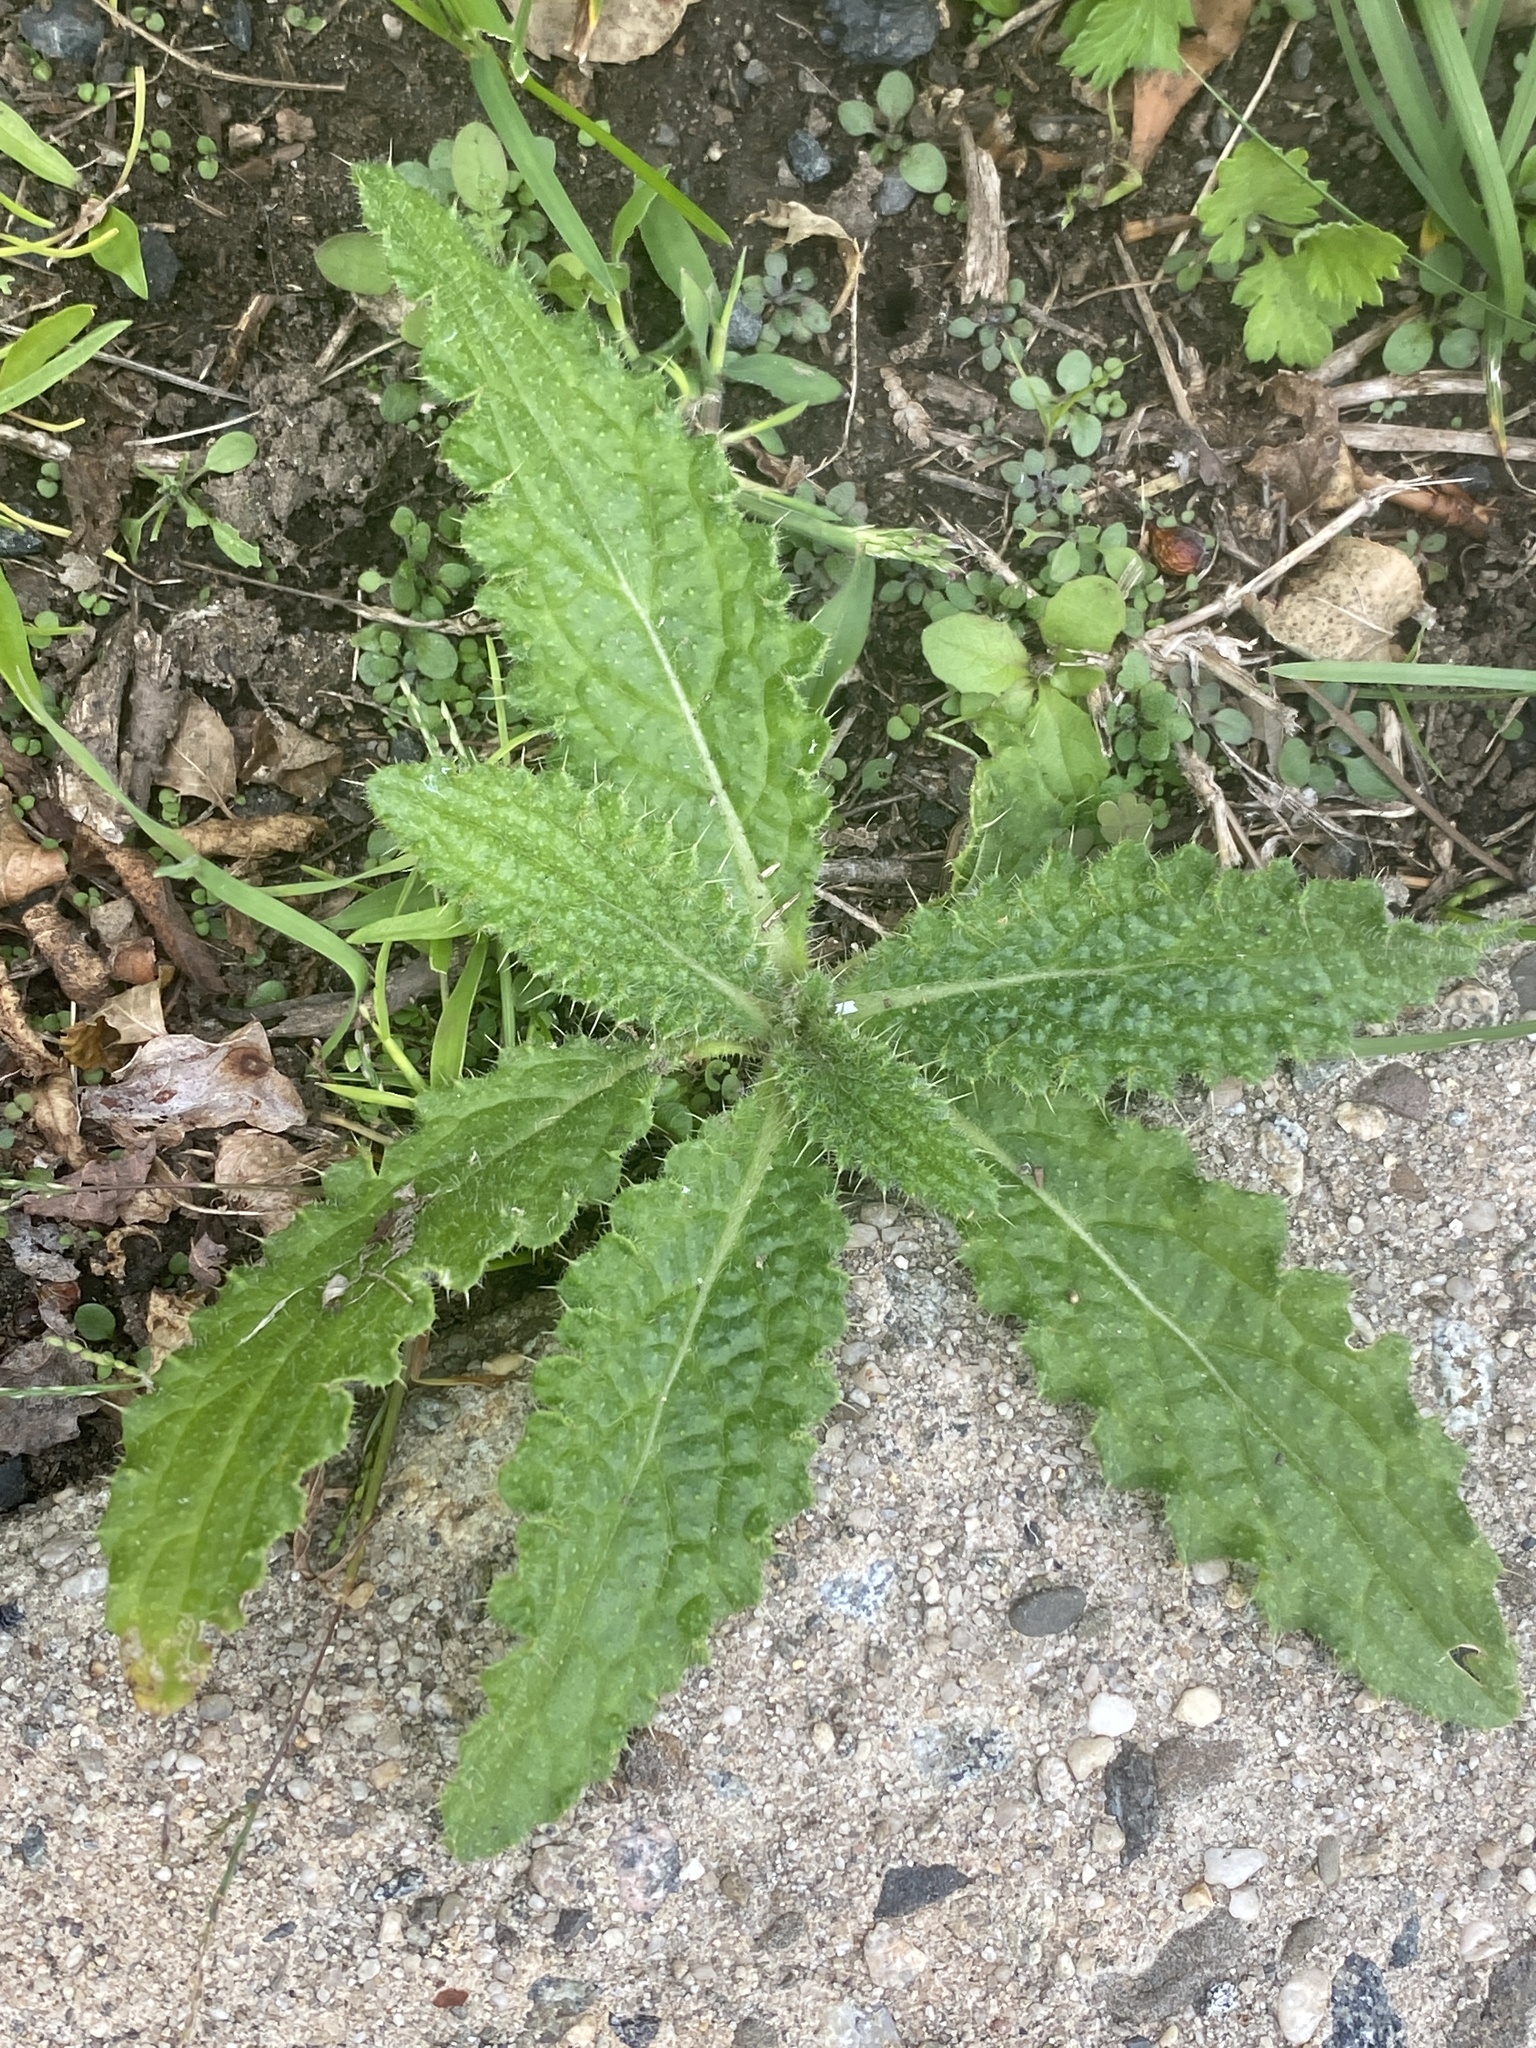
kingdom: Plantae
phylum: Tracheophyta
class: Magnoliopsida
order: Asterales
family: Asteraceae
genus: Cirsium
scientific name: Cirsium vulgare
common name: Bull thistle
